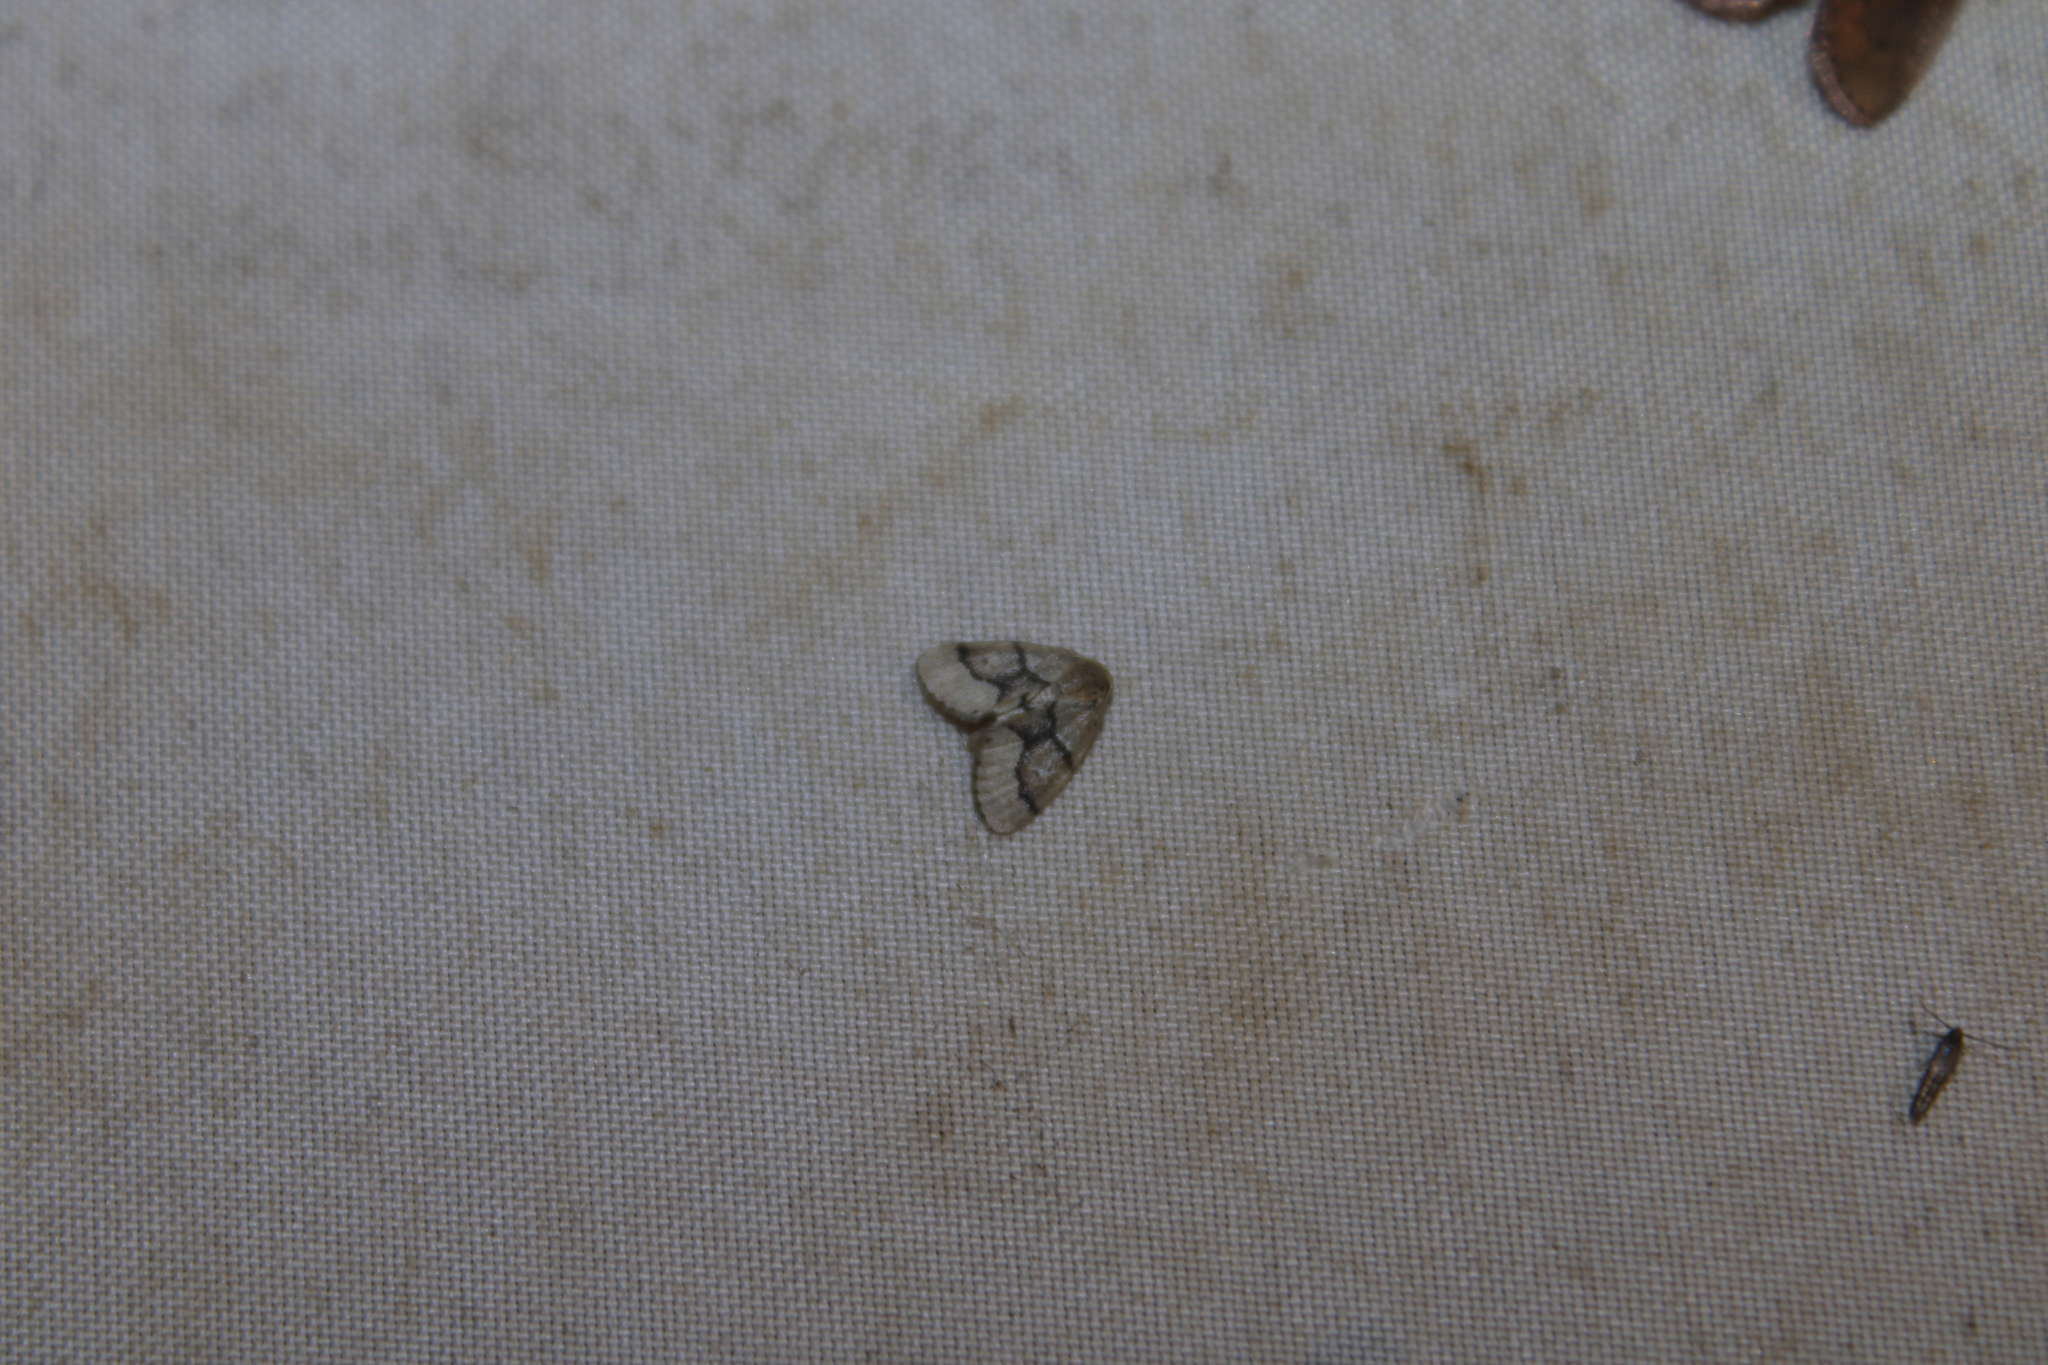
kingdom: Animalia
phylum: Arthropoda
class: Insecta
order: Lepidoptera
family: Geometridae
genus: Idaea
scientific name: Idaea insulensis
